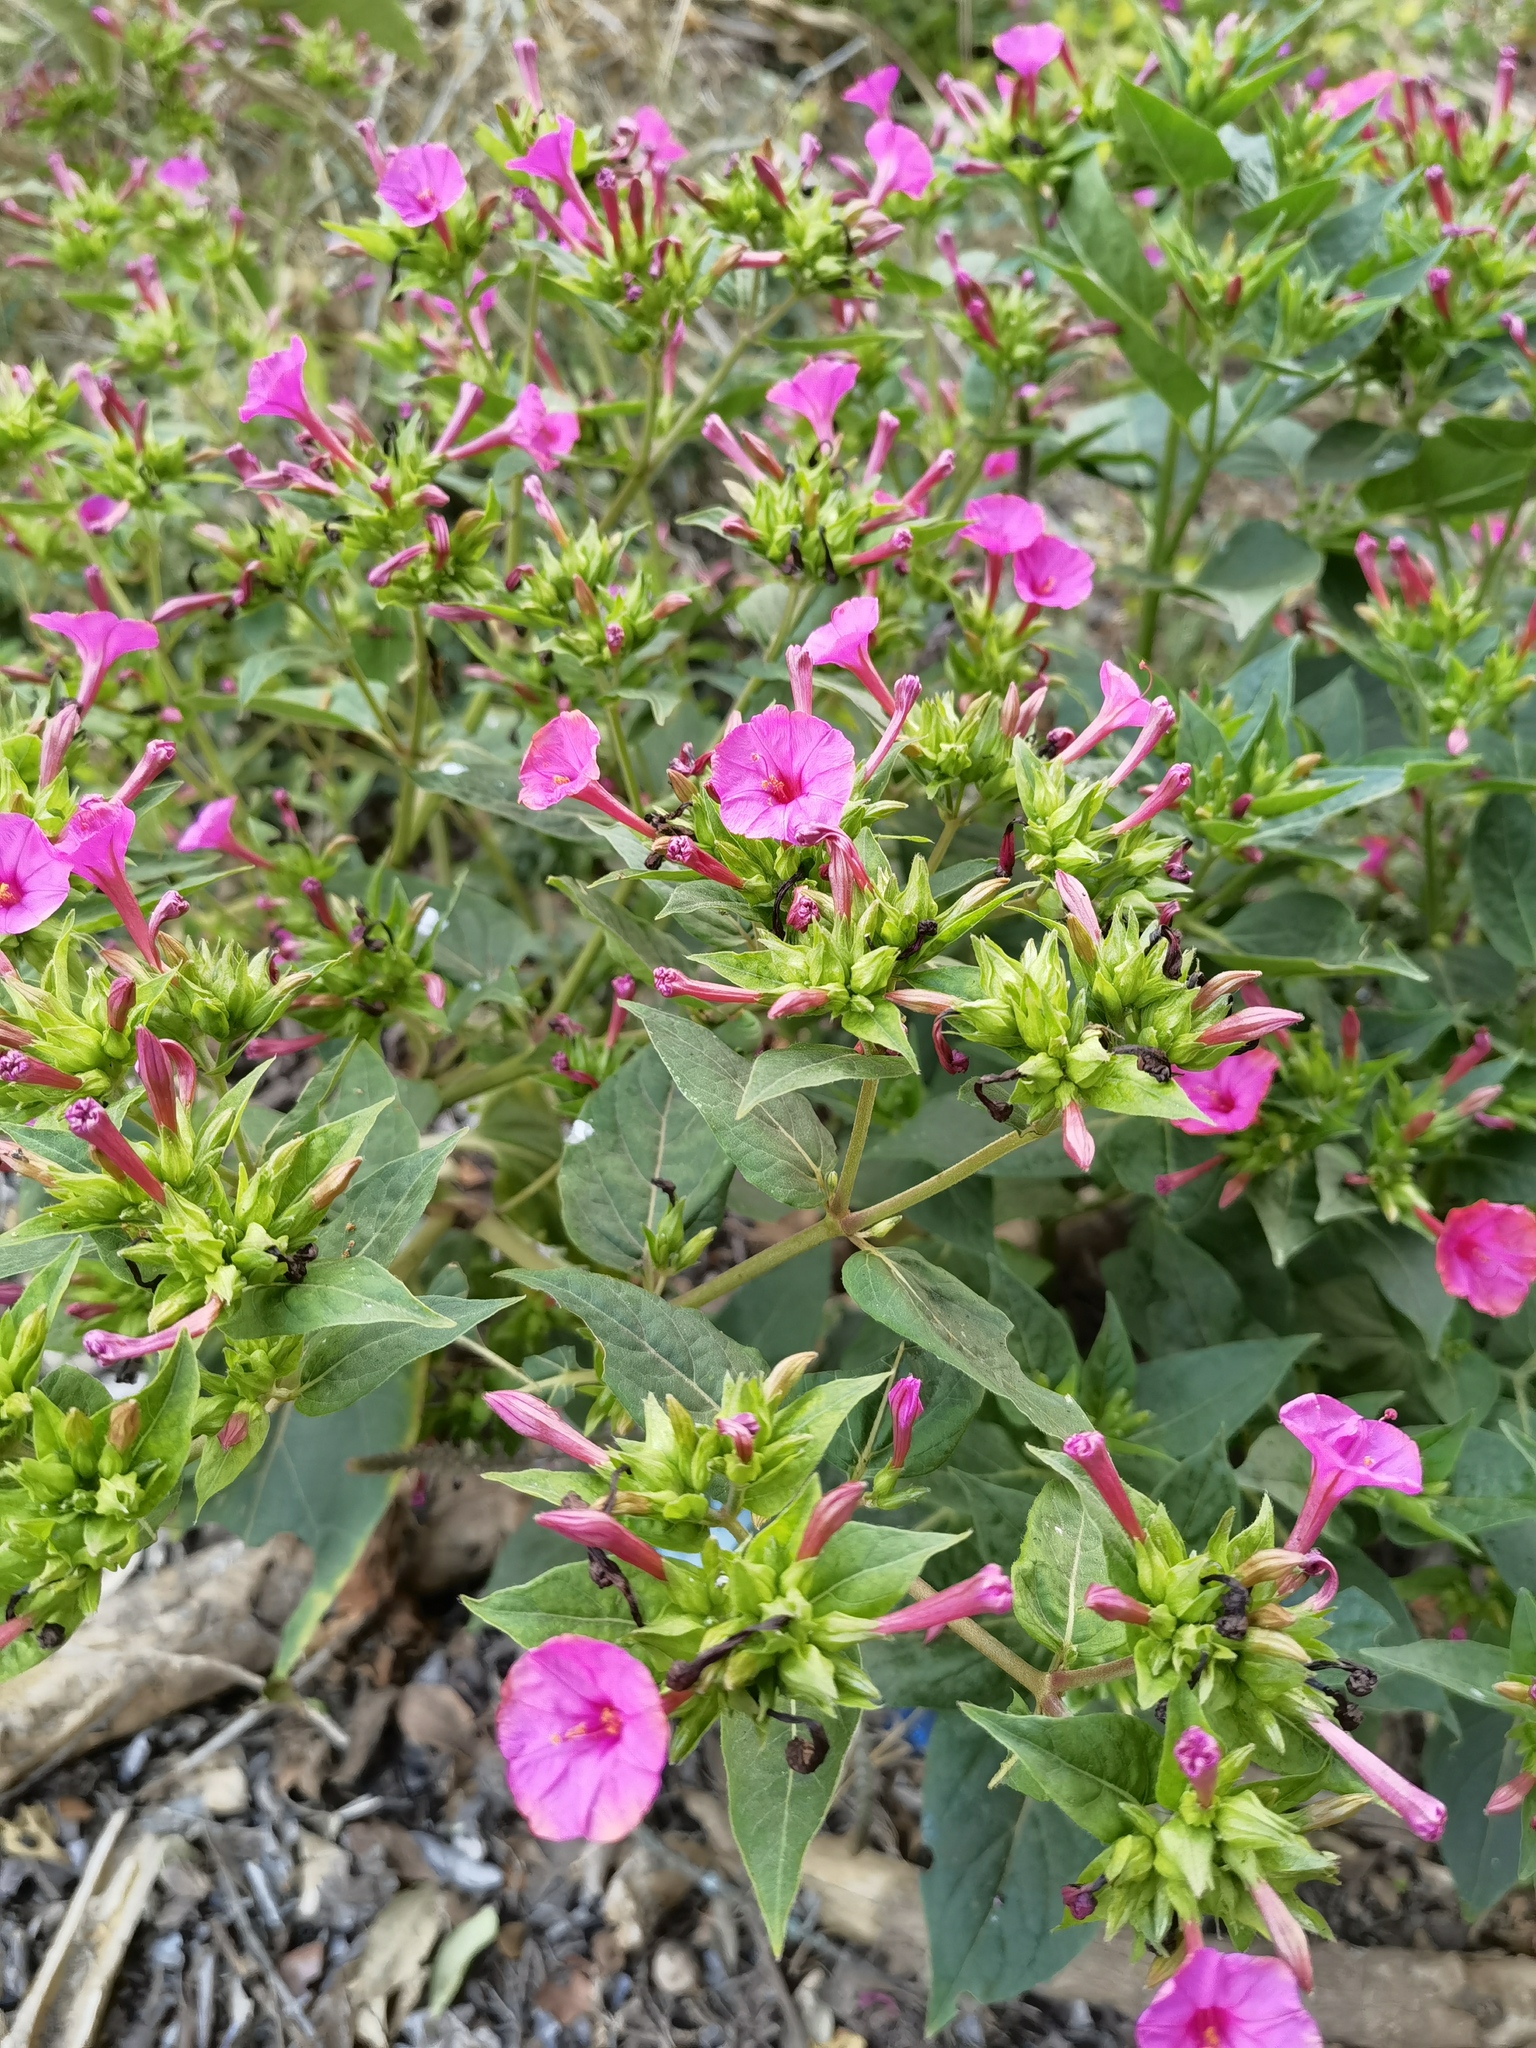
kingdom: Plantae
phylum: Tracheophyta
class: Magnoliopsida
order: Caryophyllales
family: Nyctaginaceae
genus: Mirabilis
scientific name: Mirabilis jalapa
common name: Marvel-of-peru
